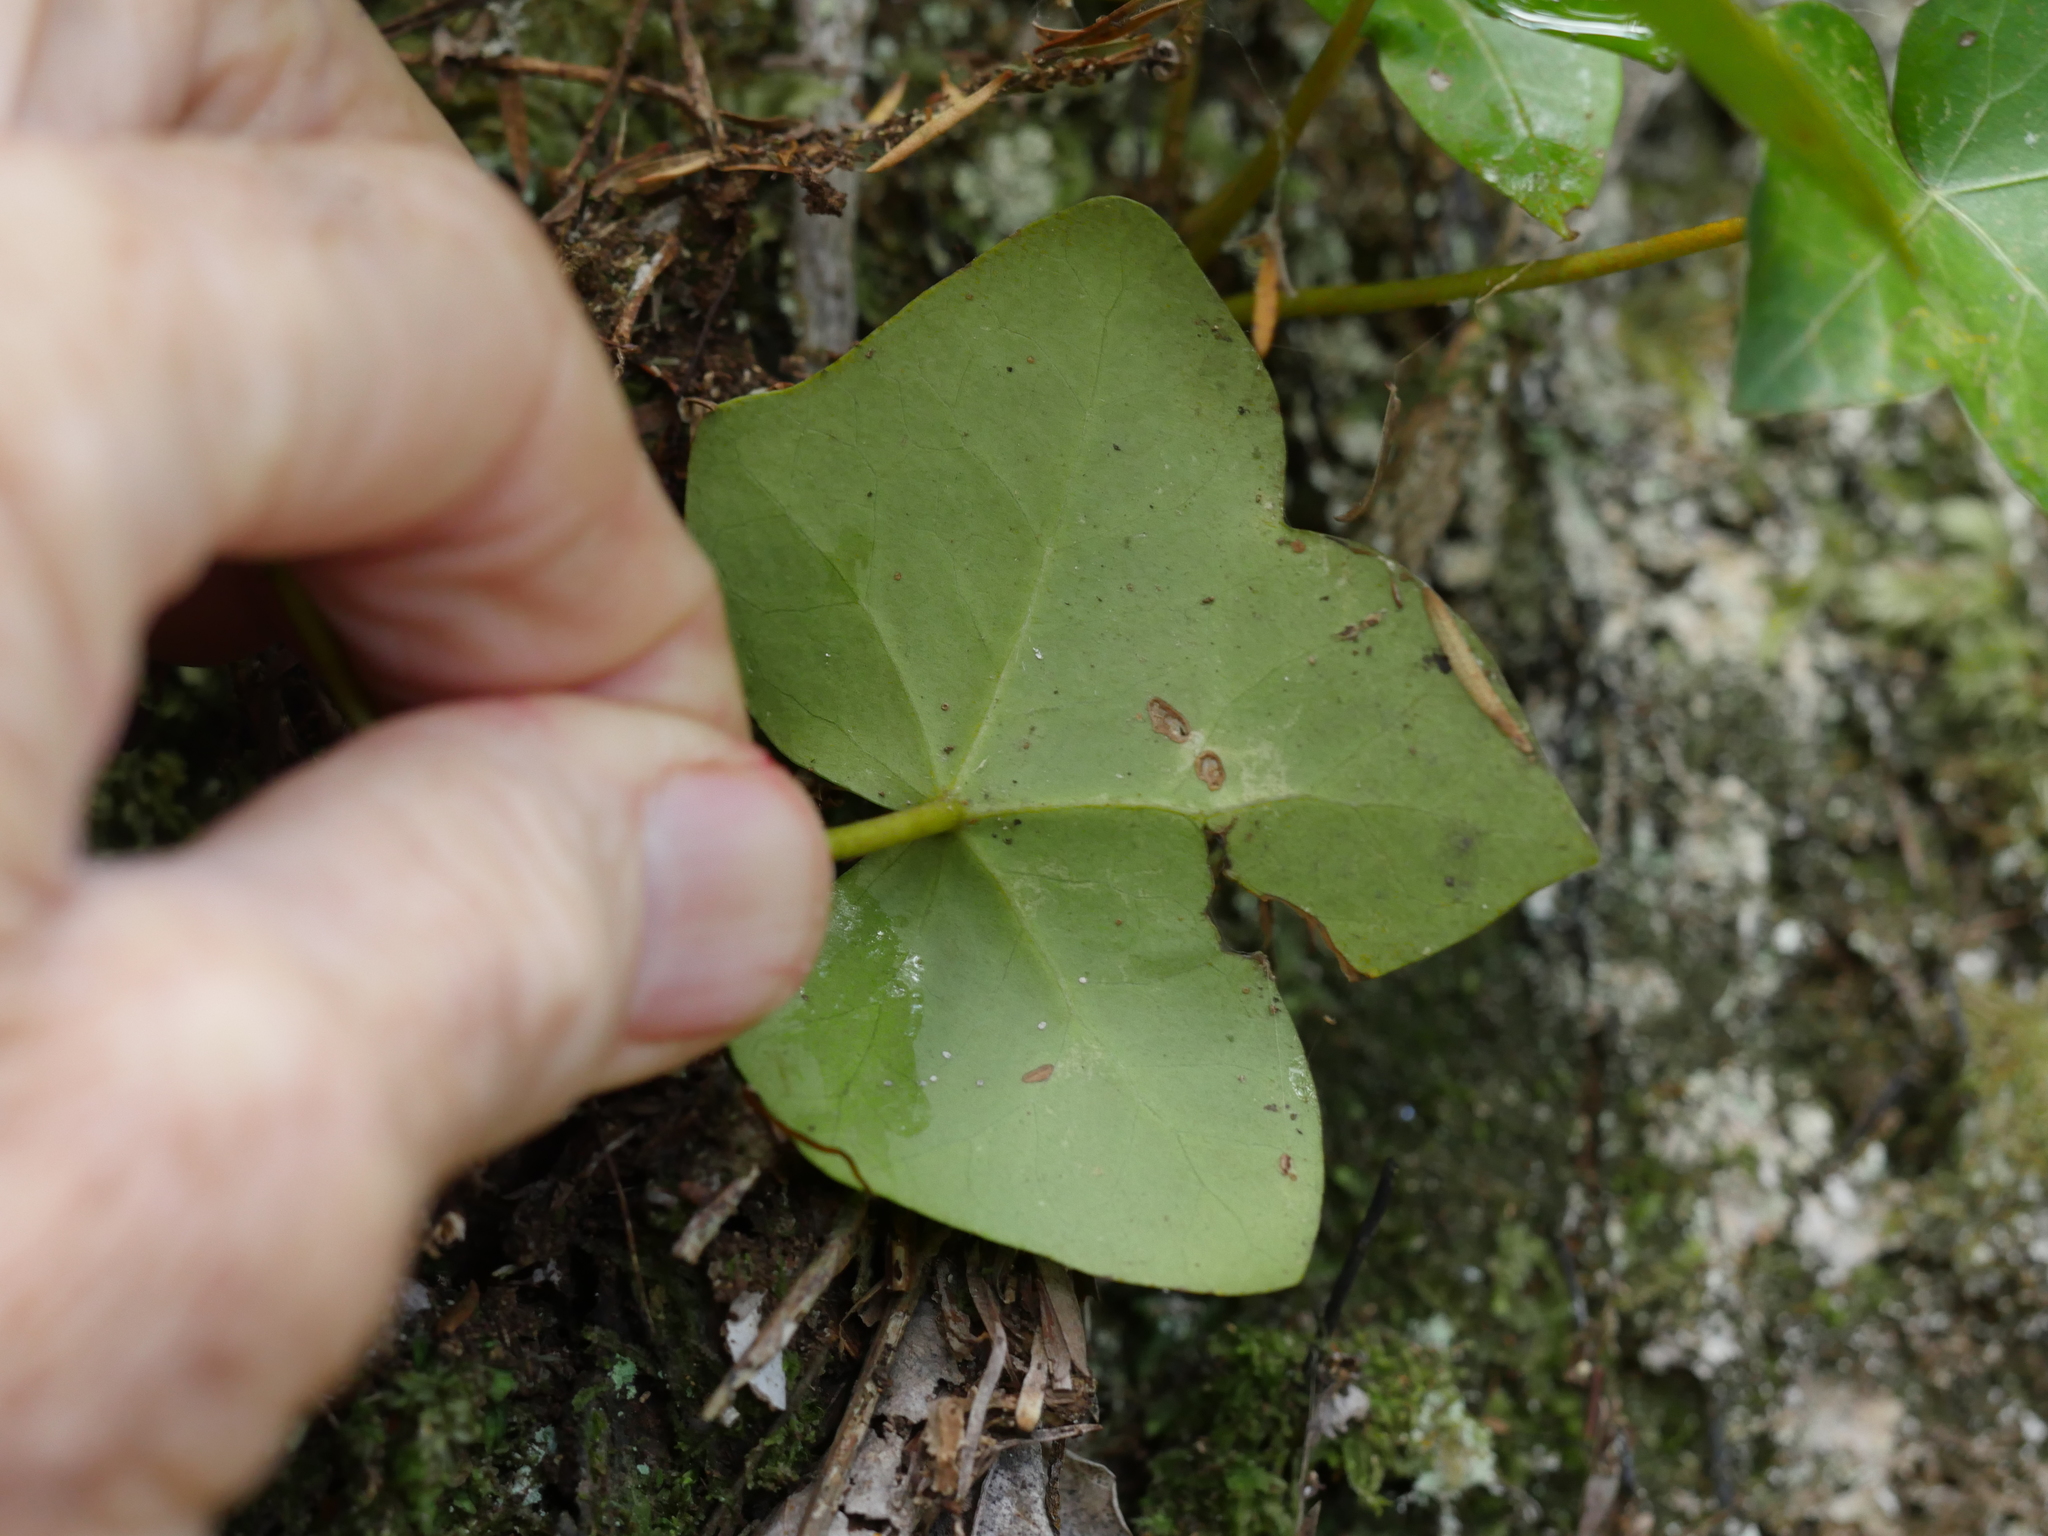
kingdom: Plantae
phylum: Tracheophyta
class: Magnoliopsida
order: Apiales
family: Araliaceae
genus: Hedera
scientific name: Hedera helix
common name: Ivy
